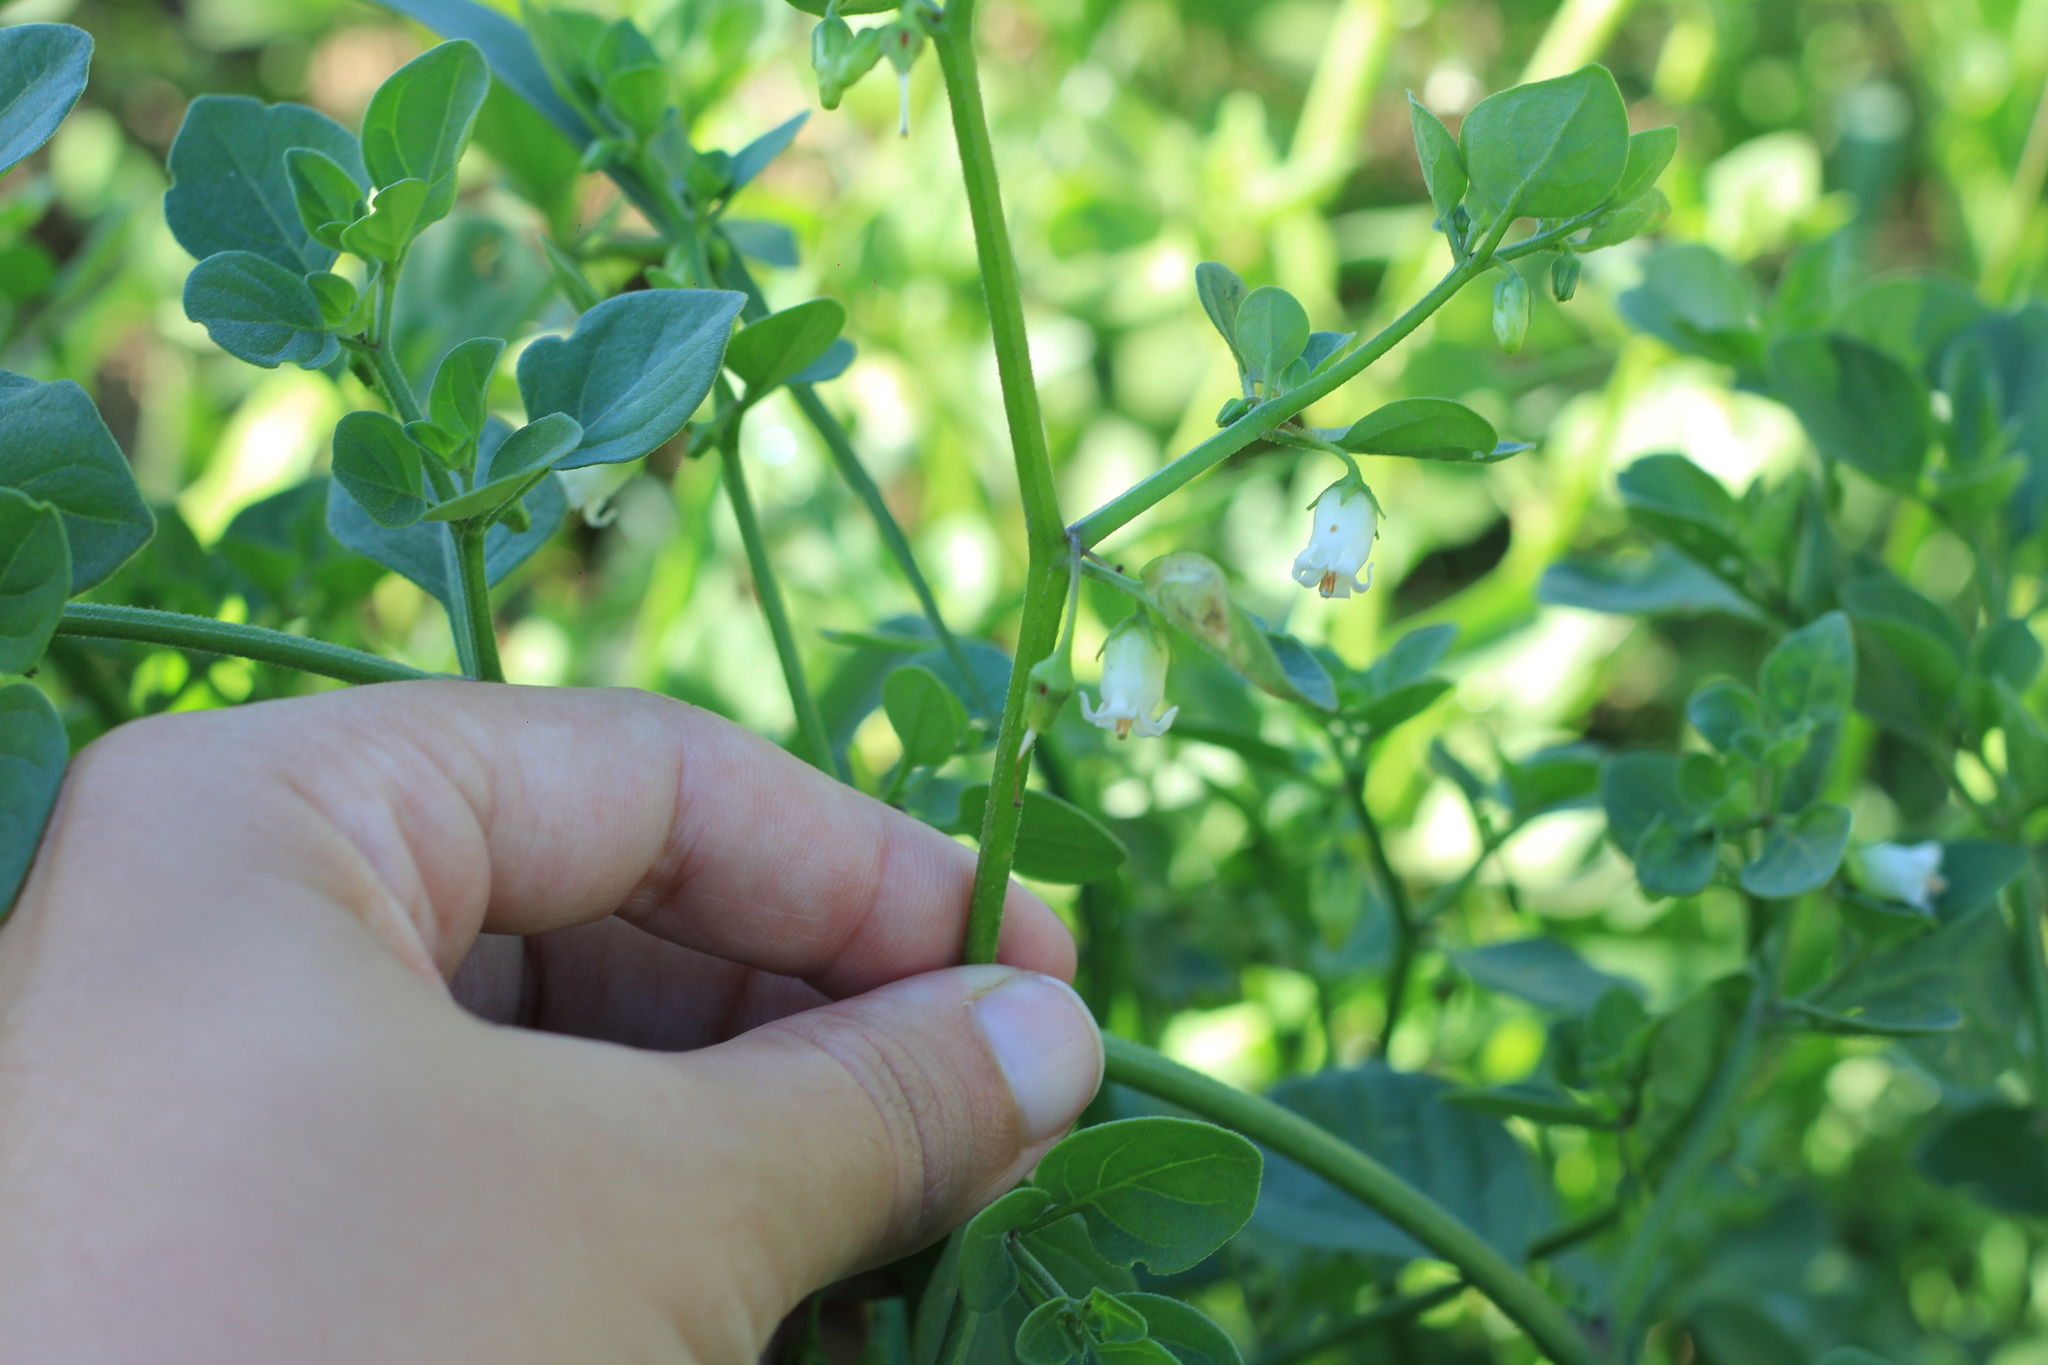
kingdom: Plantae
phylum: Tracheophyta
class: Magnoliopsida
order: Solanales
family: Solanaceae
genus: Salpichroa
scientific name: Salpichroa origanifolia
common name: Lily-of-the-valley-vine
